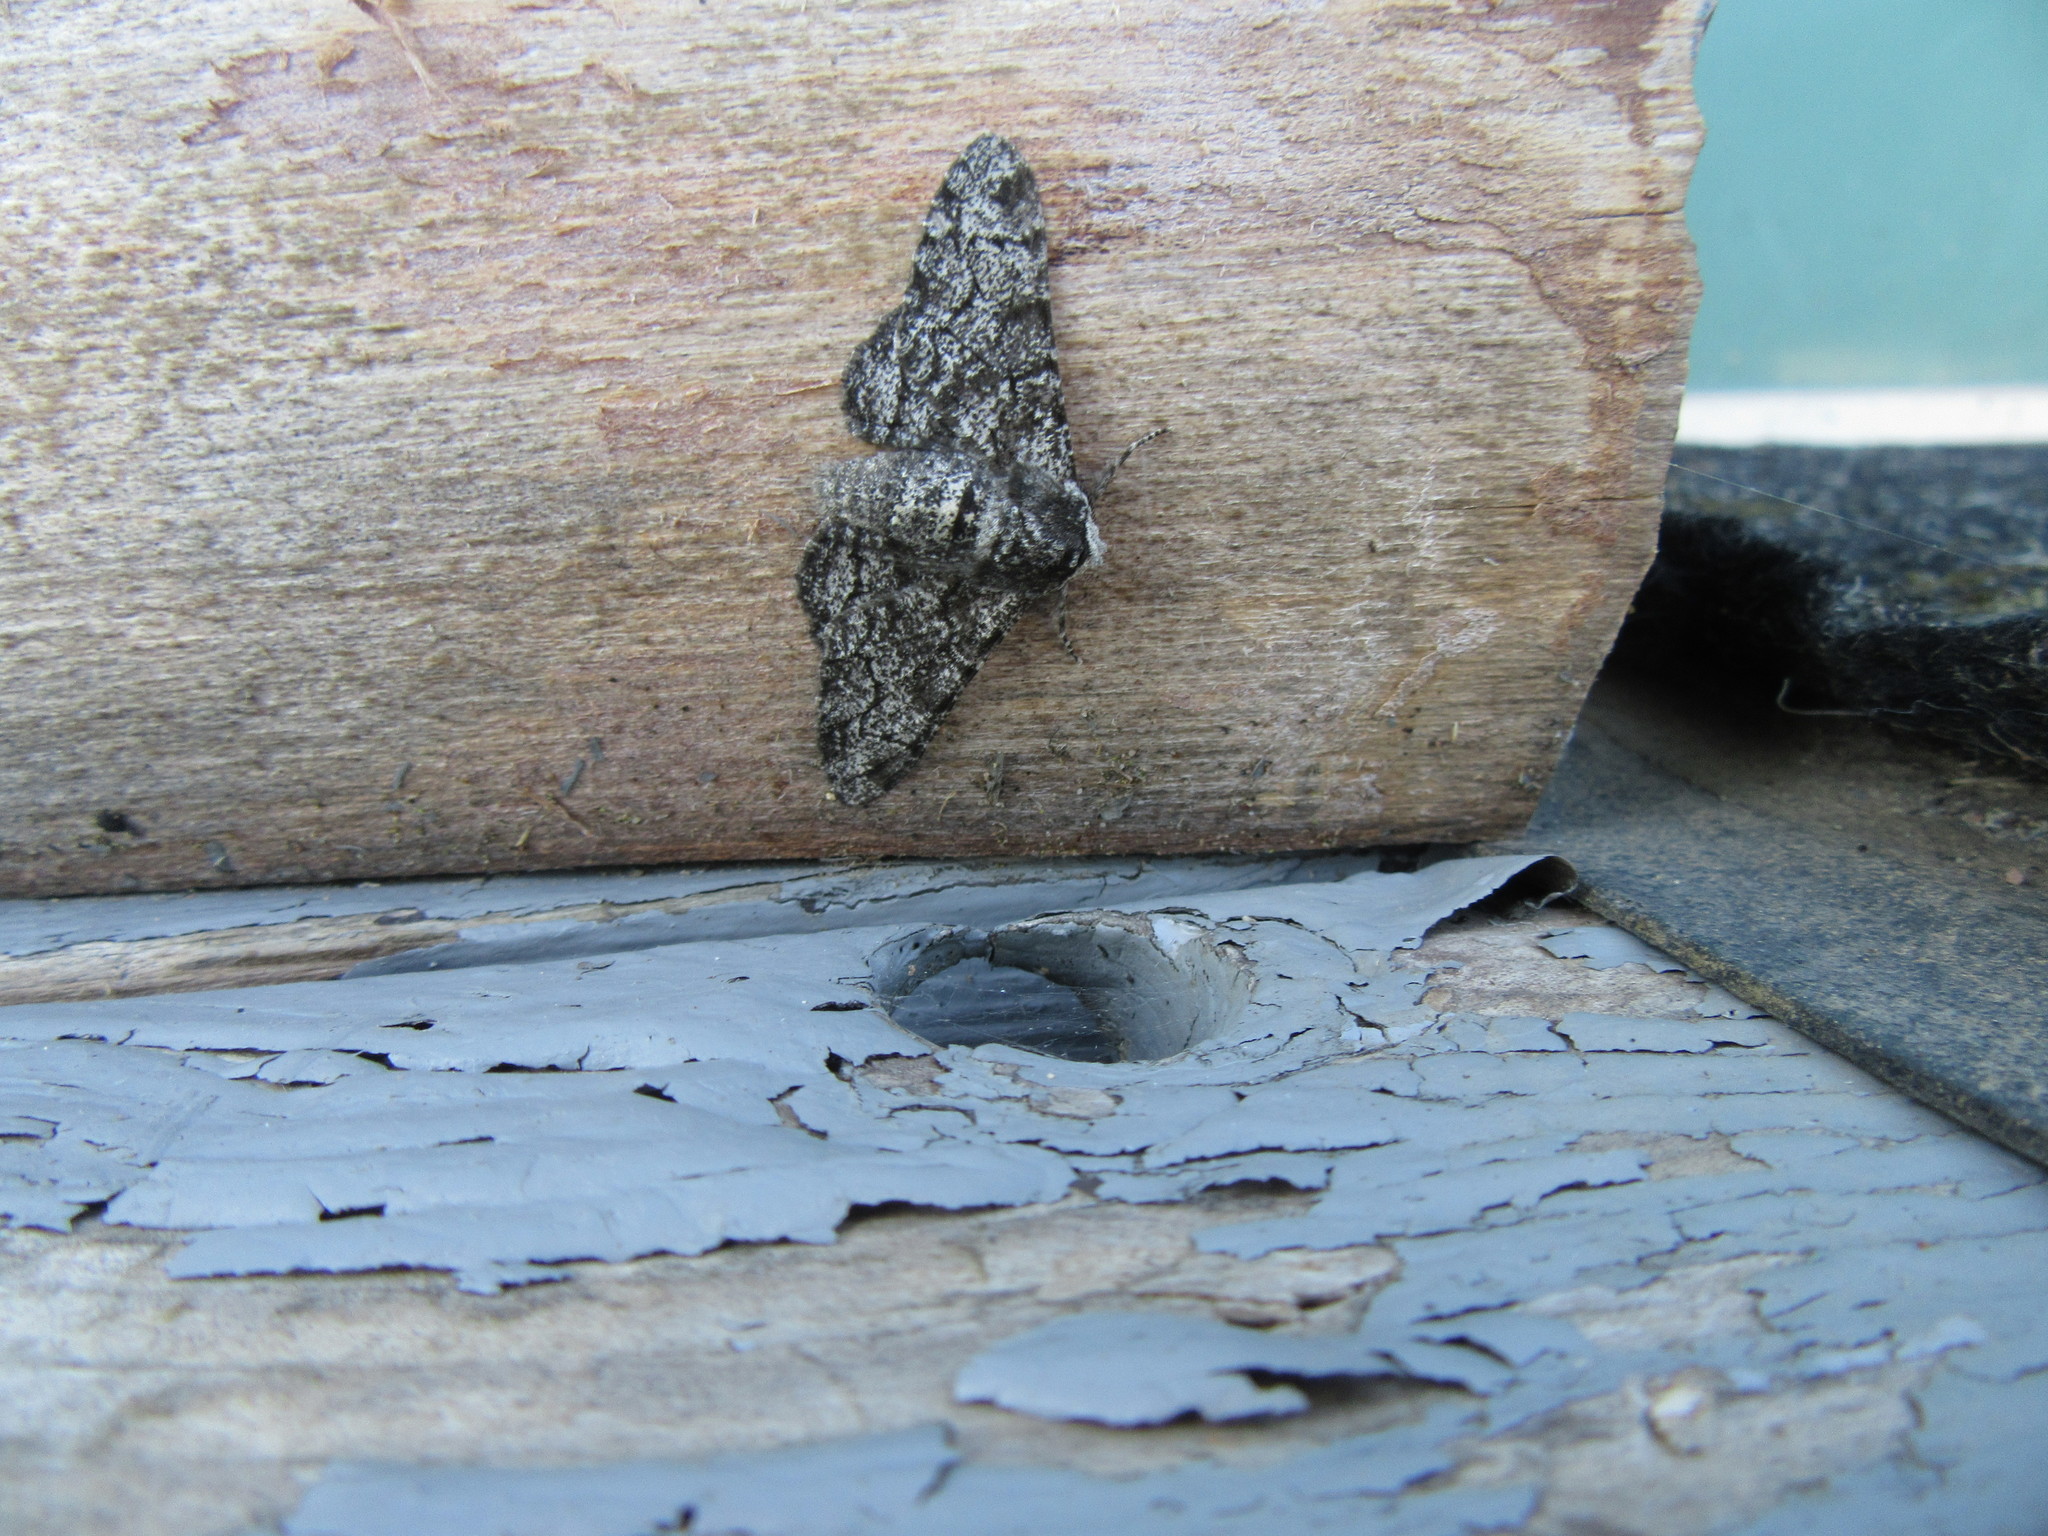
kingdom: Animalia
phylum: Arthropoda
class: Insecta
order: Lepidoptera
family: Geometridae
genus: Biston
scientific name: Biston betularia
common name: Peppered moth
